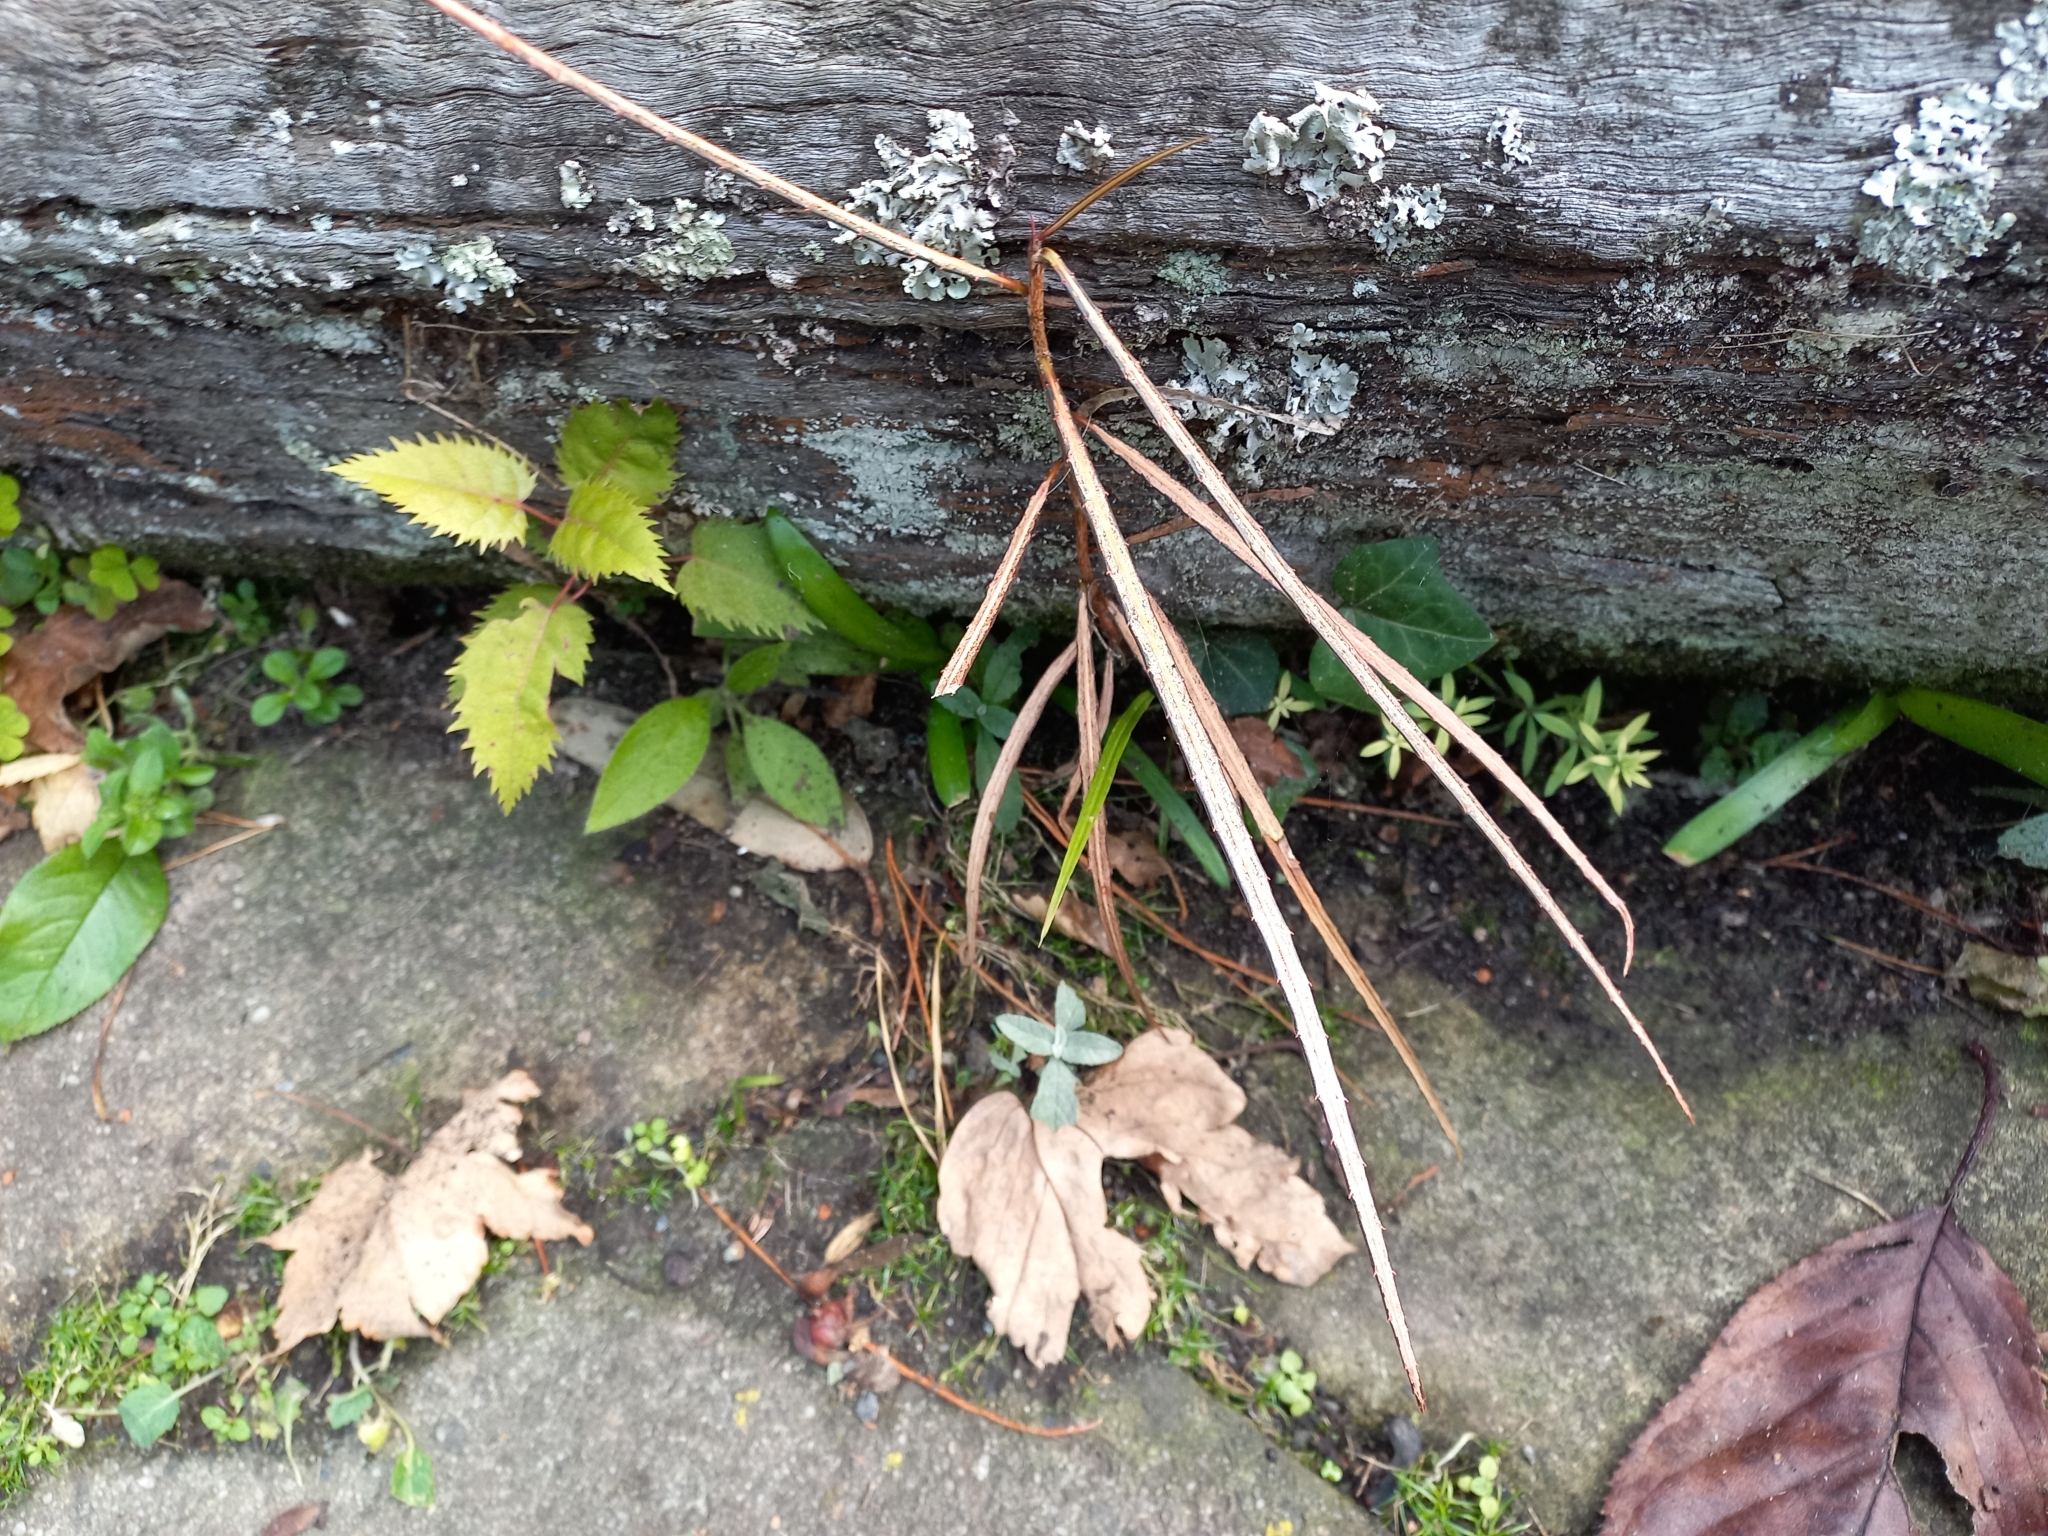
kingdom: Plantae
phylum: Tracheophyta
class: Magnoliopsida
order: Oxalidales
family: Elaeocarpaceae
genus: Aristotelia
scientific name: Aristotelia serrata
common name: New zealand wineberry
